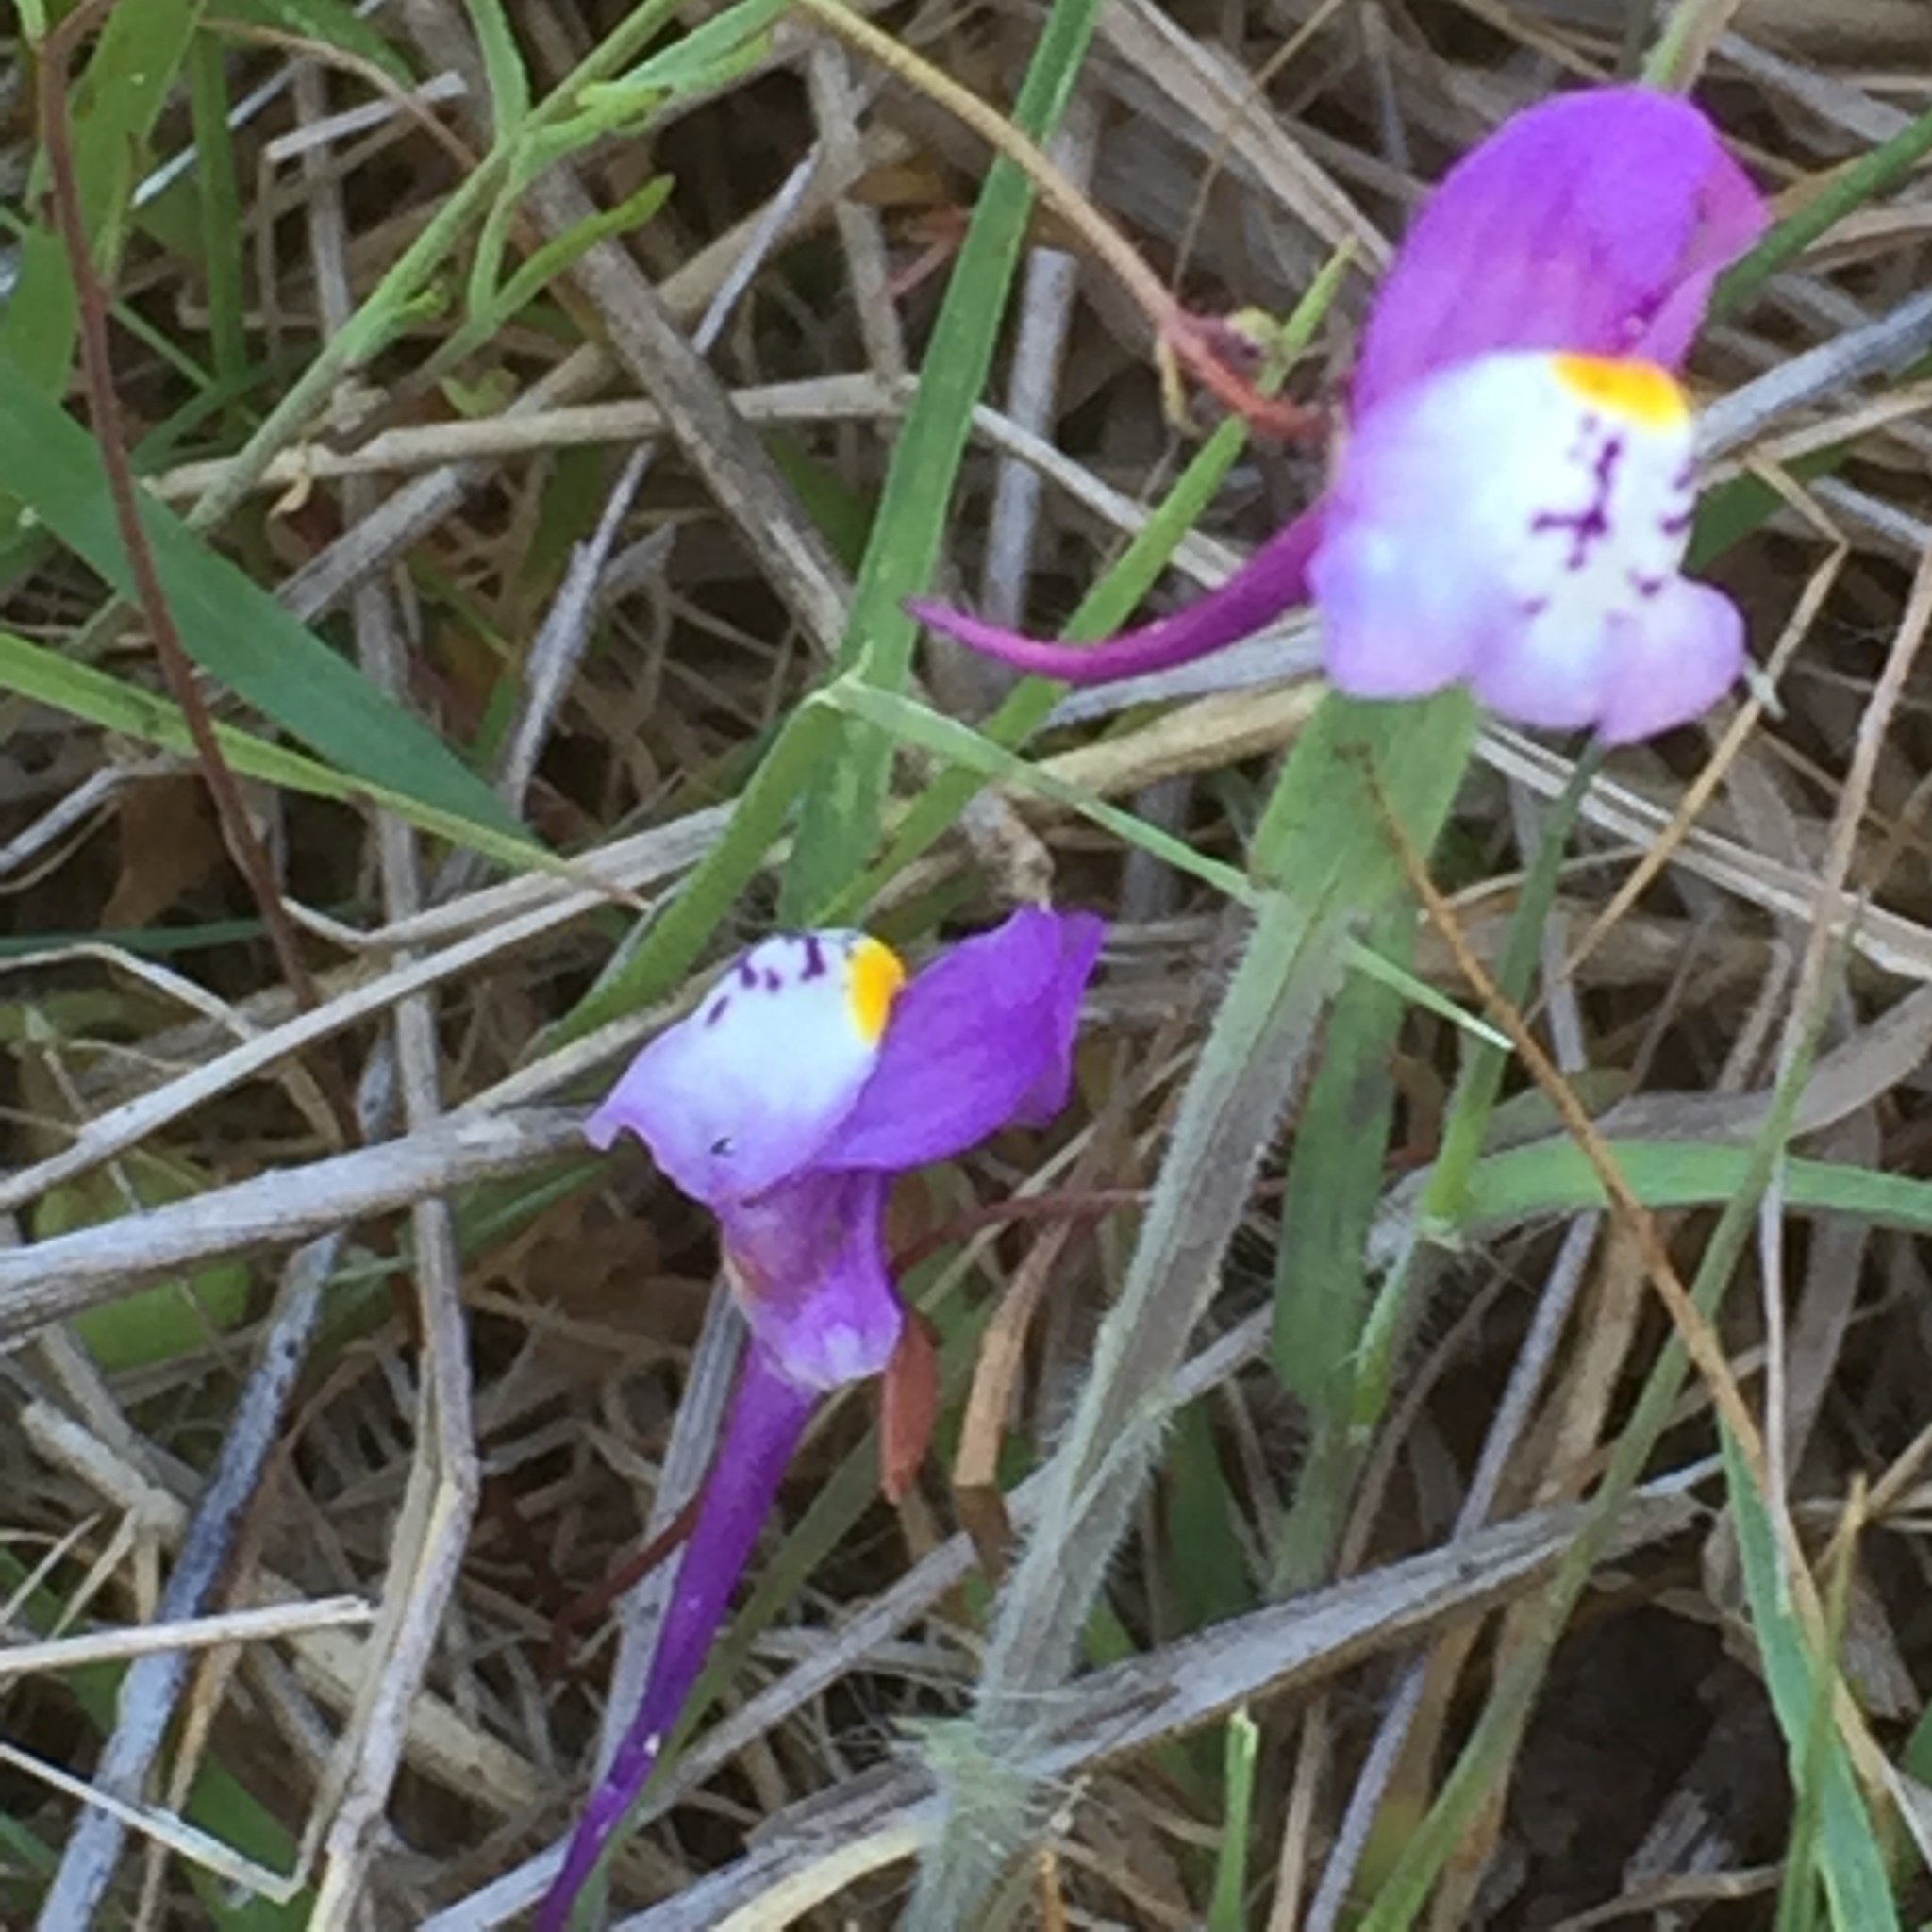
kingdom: Plantae
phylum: Tracheophyta
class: Magnoliopsida
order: Lamiales
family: Plantaginaceae
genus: Linaria
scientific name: Linaria algarviana
